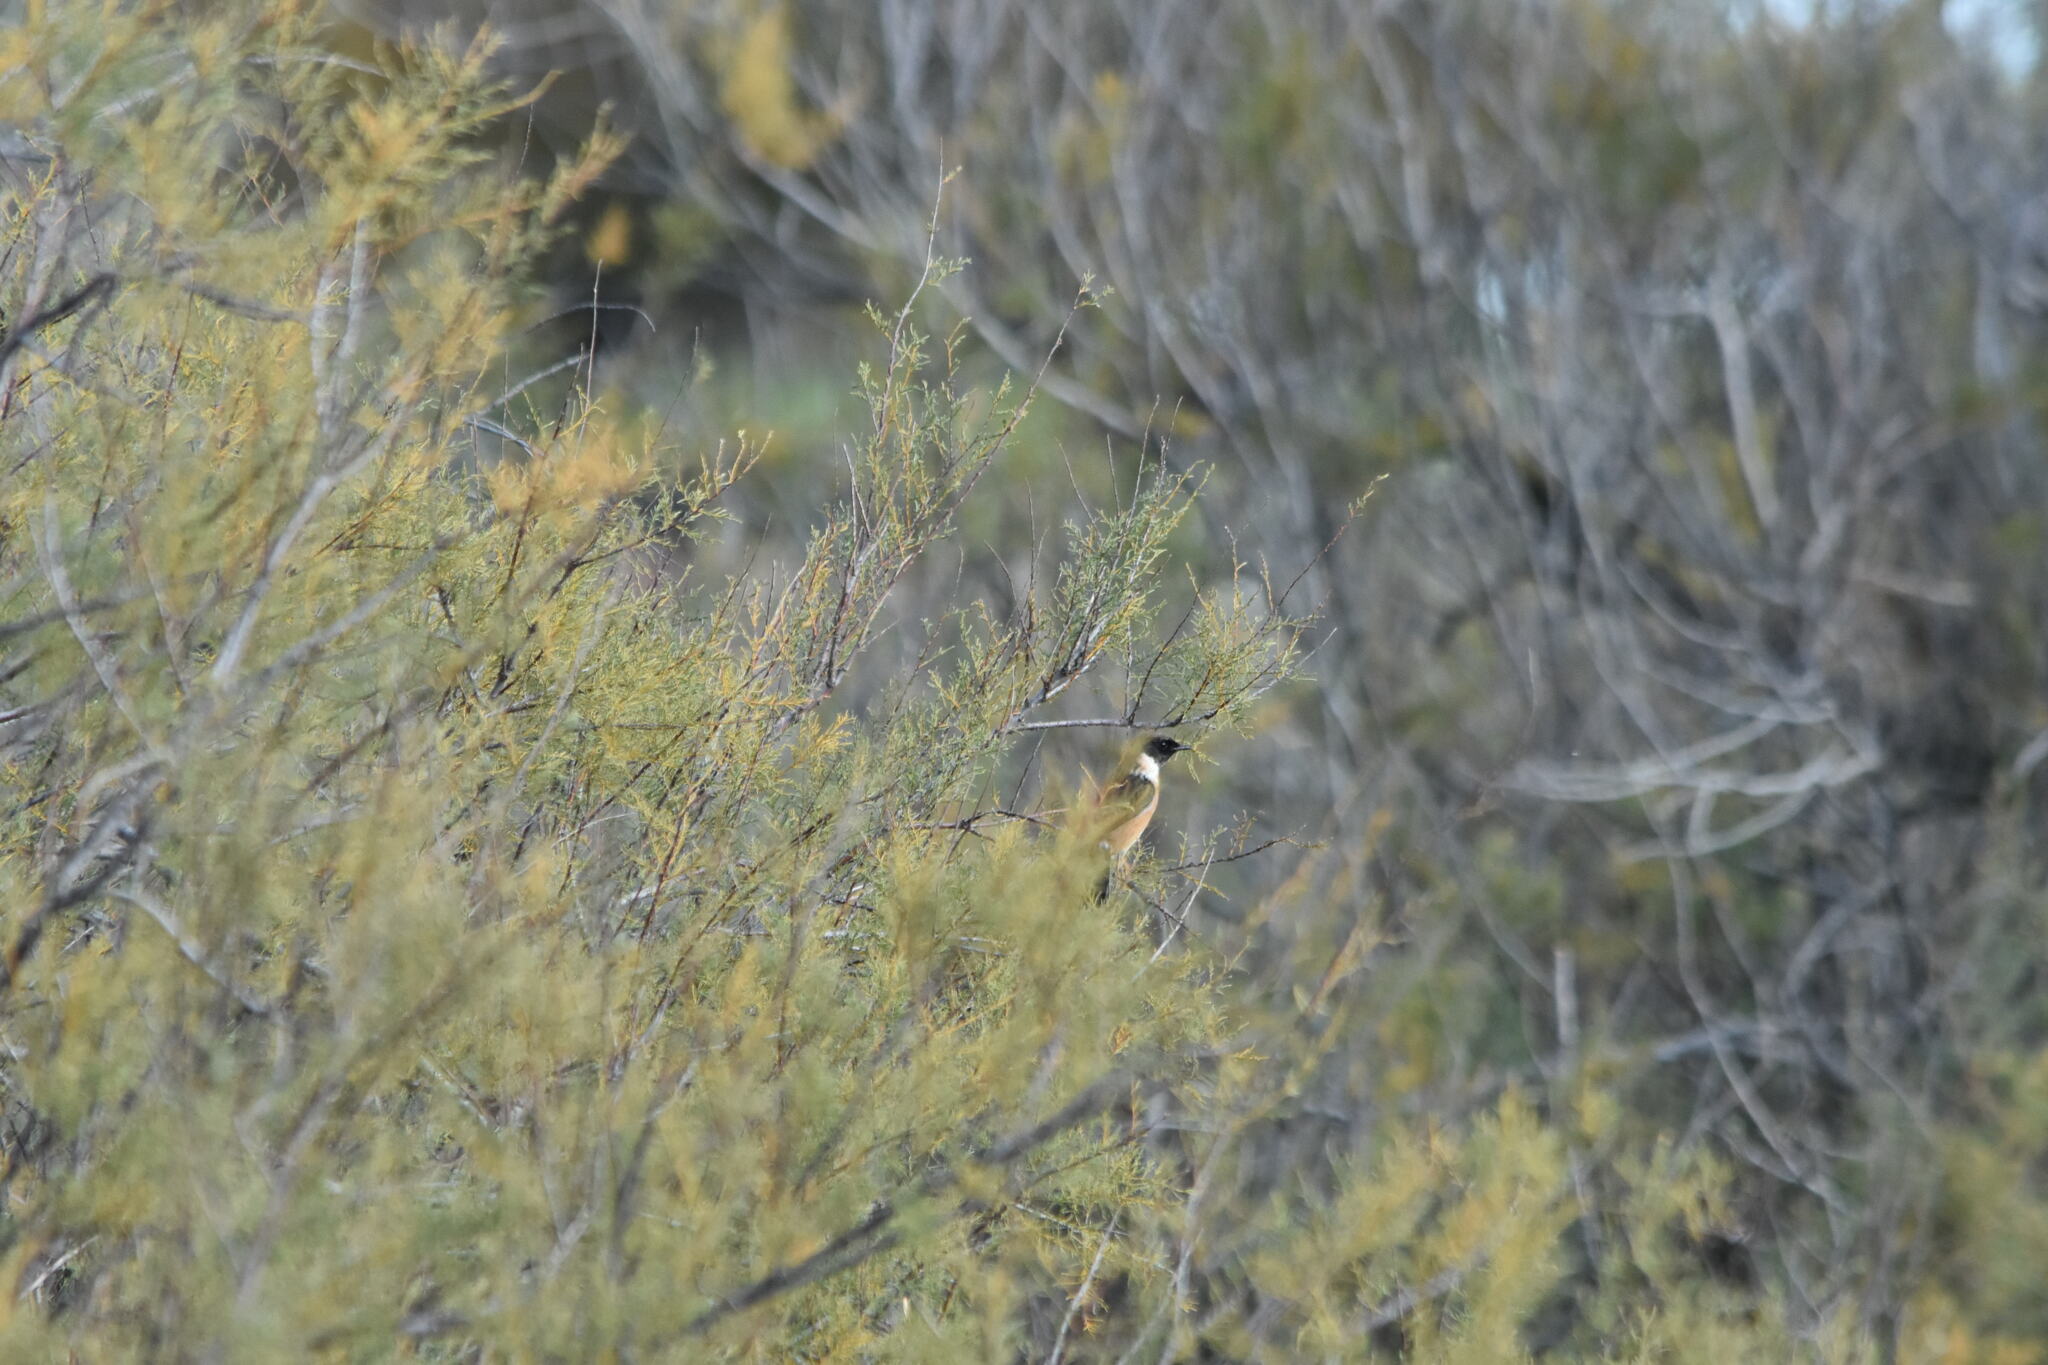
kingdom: Animalia
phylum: Chordata
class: Aves
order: Passeriformes
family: Muscicapidae
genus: Saxicola
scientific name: Saxicola rubicola
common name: European stonechat
